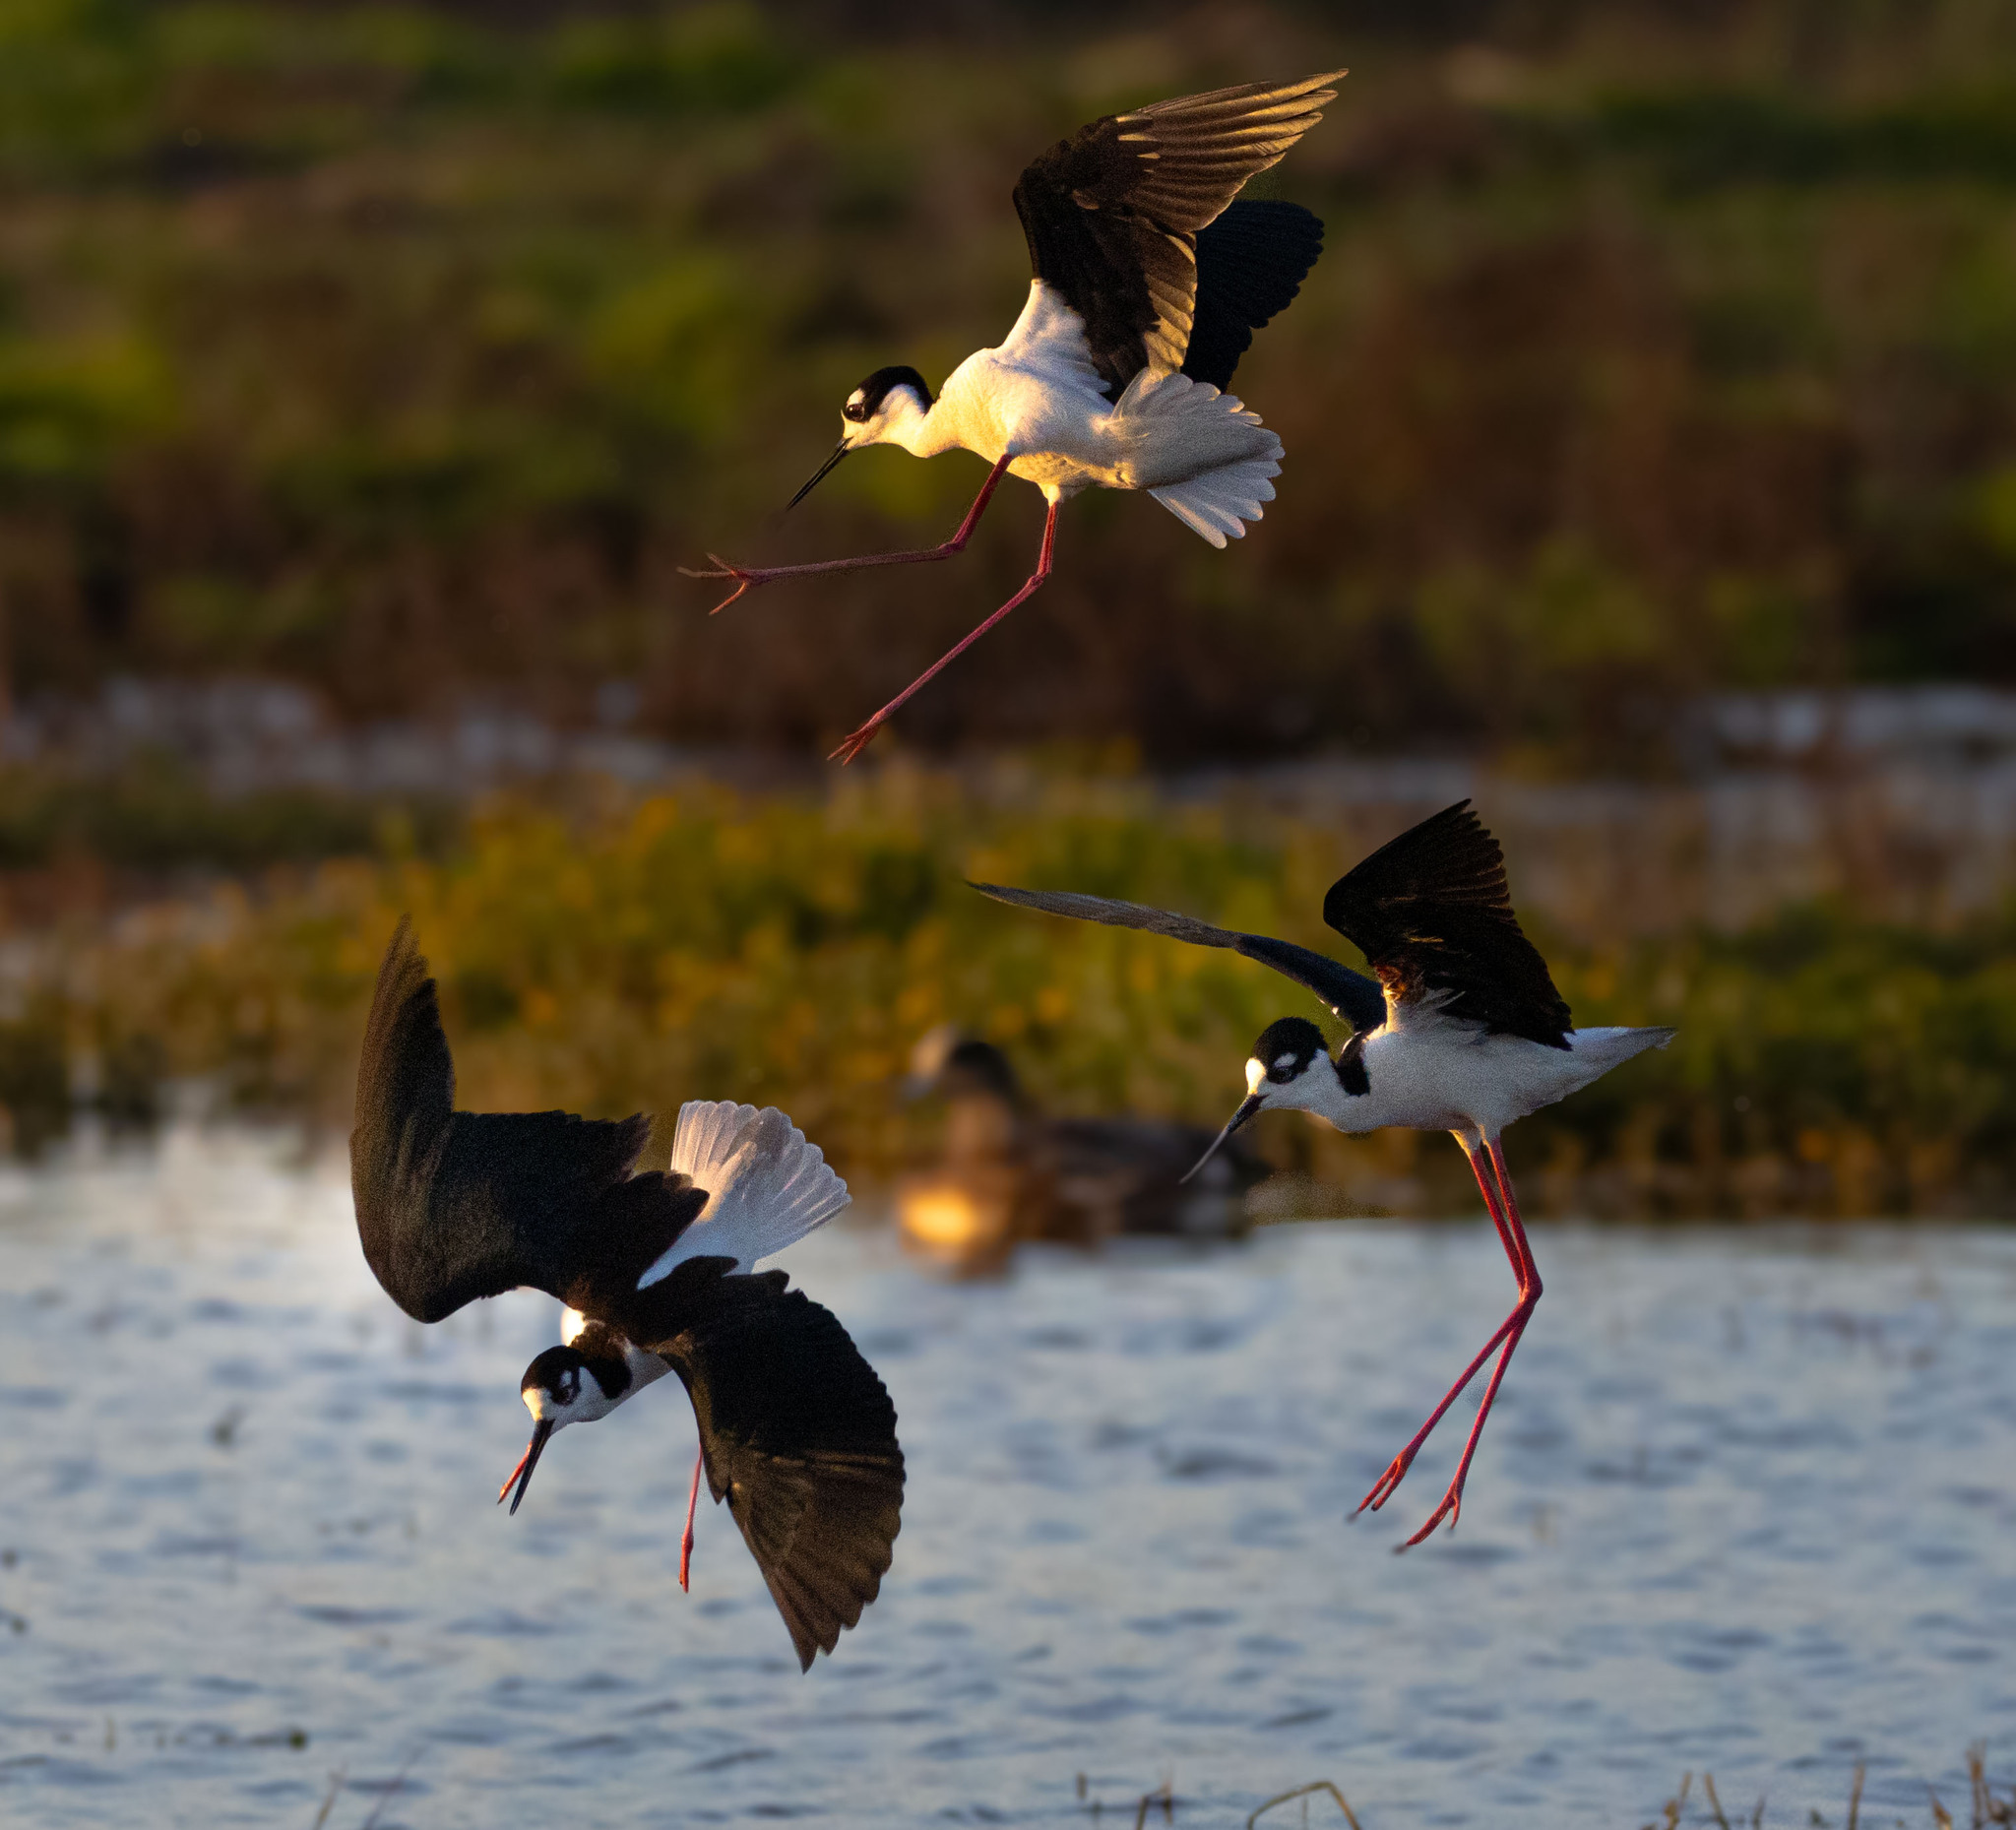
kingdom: Animalia
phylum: Chordata
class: Aves
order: Charadriiformes
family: Recurvirostridae
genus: Himantopus
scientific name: Himantopus mexicanus
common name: Black-necked stilt
